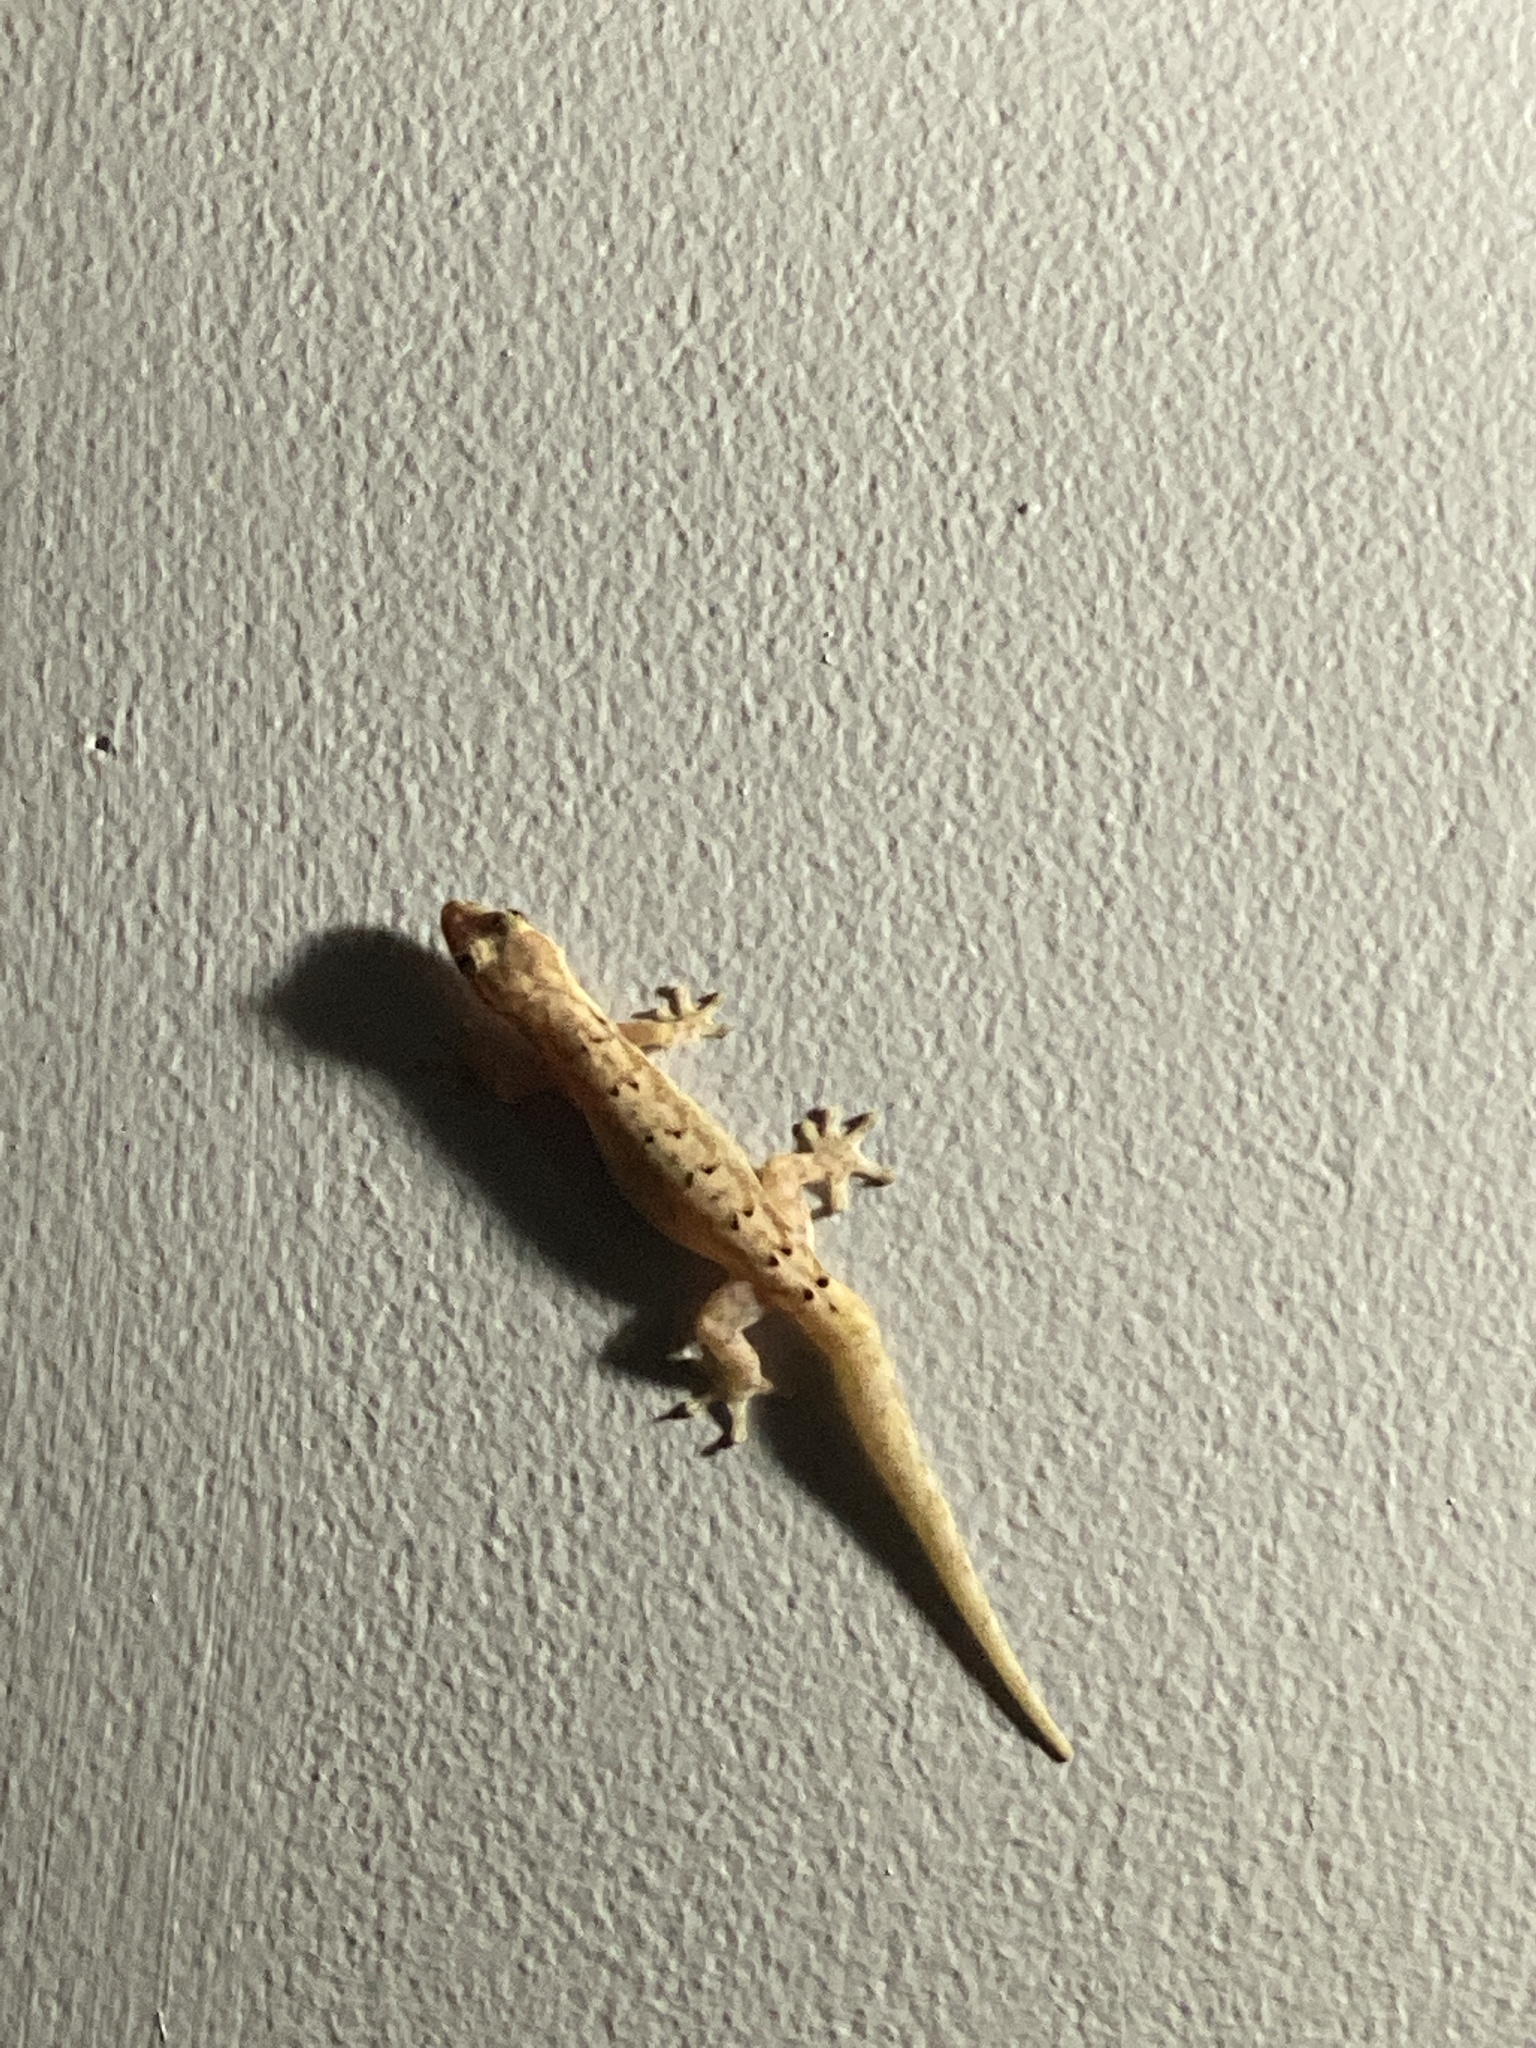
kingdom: Animalia
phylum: Chordata
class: Squamata
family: Gekkonidae
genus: Lepidodactylus
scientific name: Lepidodactylus lugubris
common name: Mourning gecko
